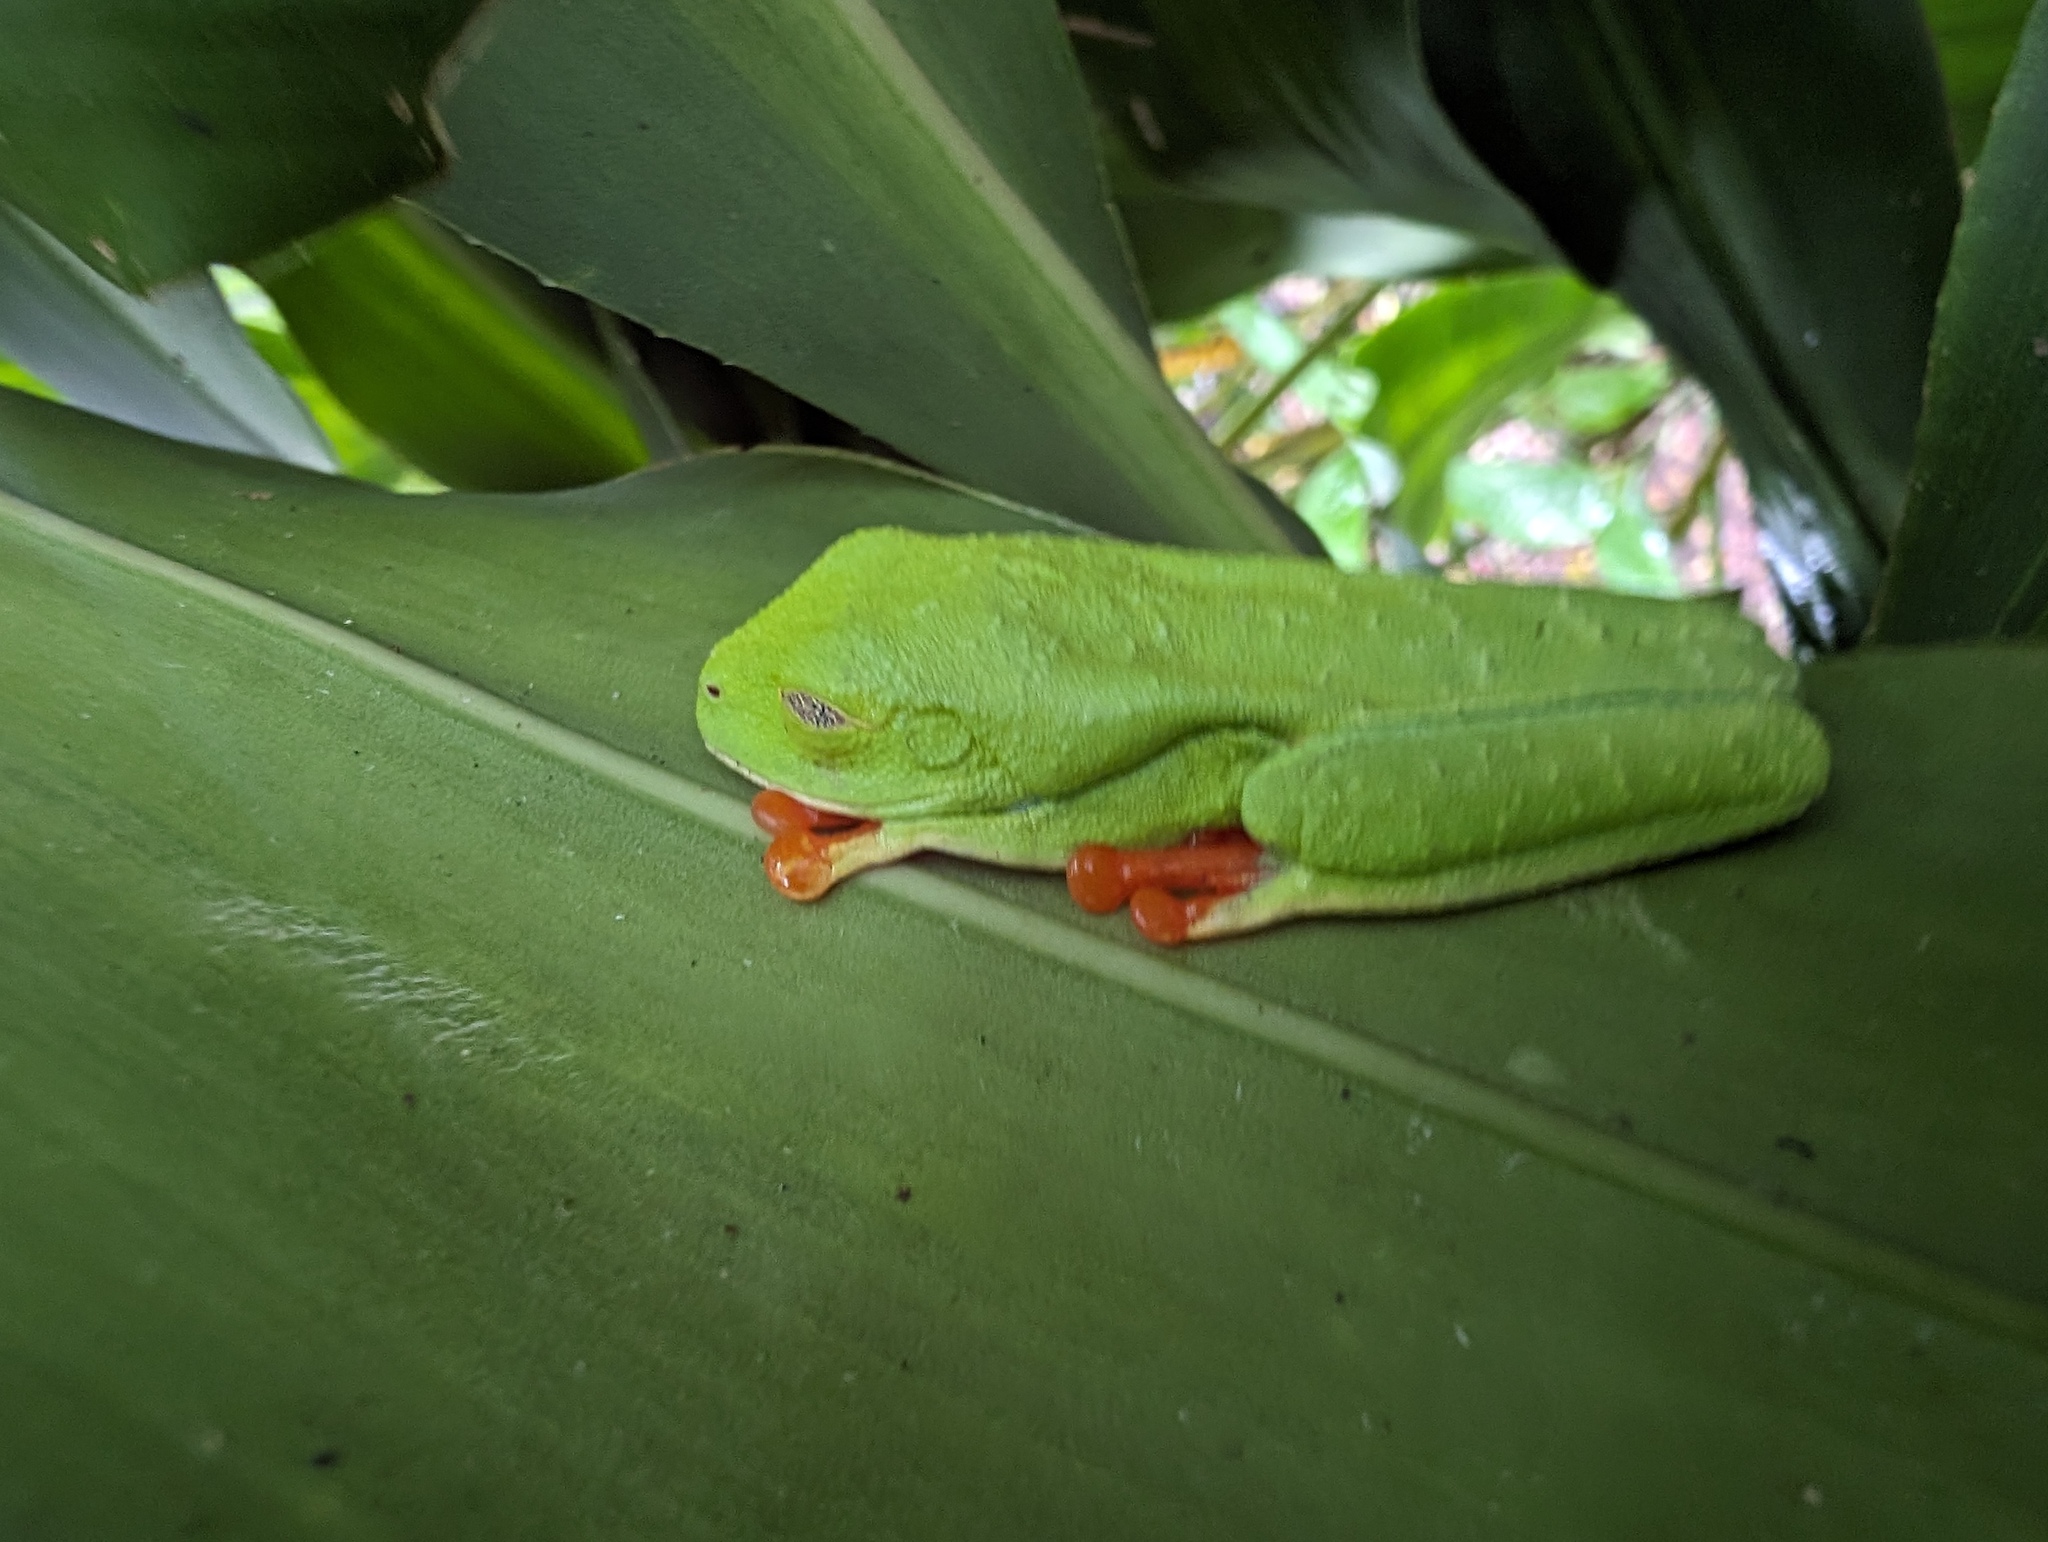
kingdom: Animalia
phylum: Chordata
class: Amphibia
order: Anura
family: Phyllomedusidae
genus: Agalychnis
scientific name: Agalychnis callidryas
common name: Red-eyed treefrog
